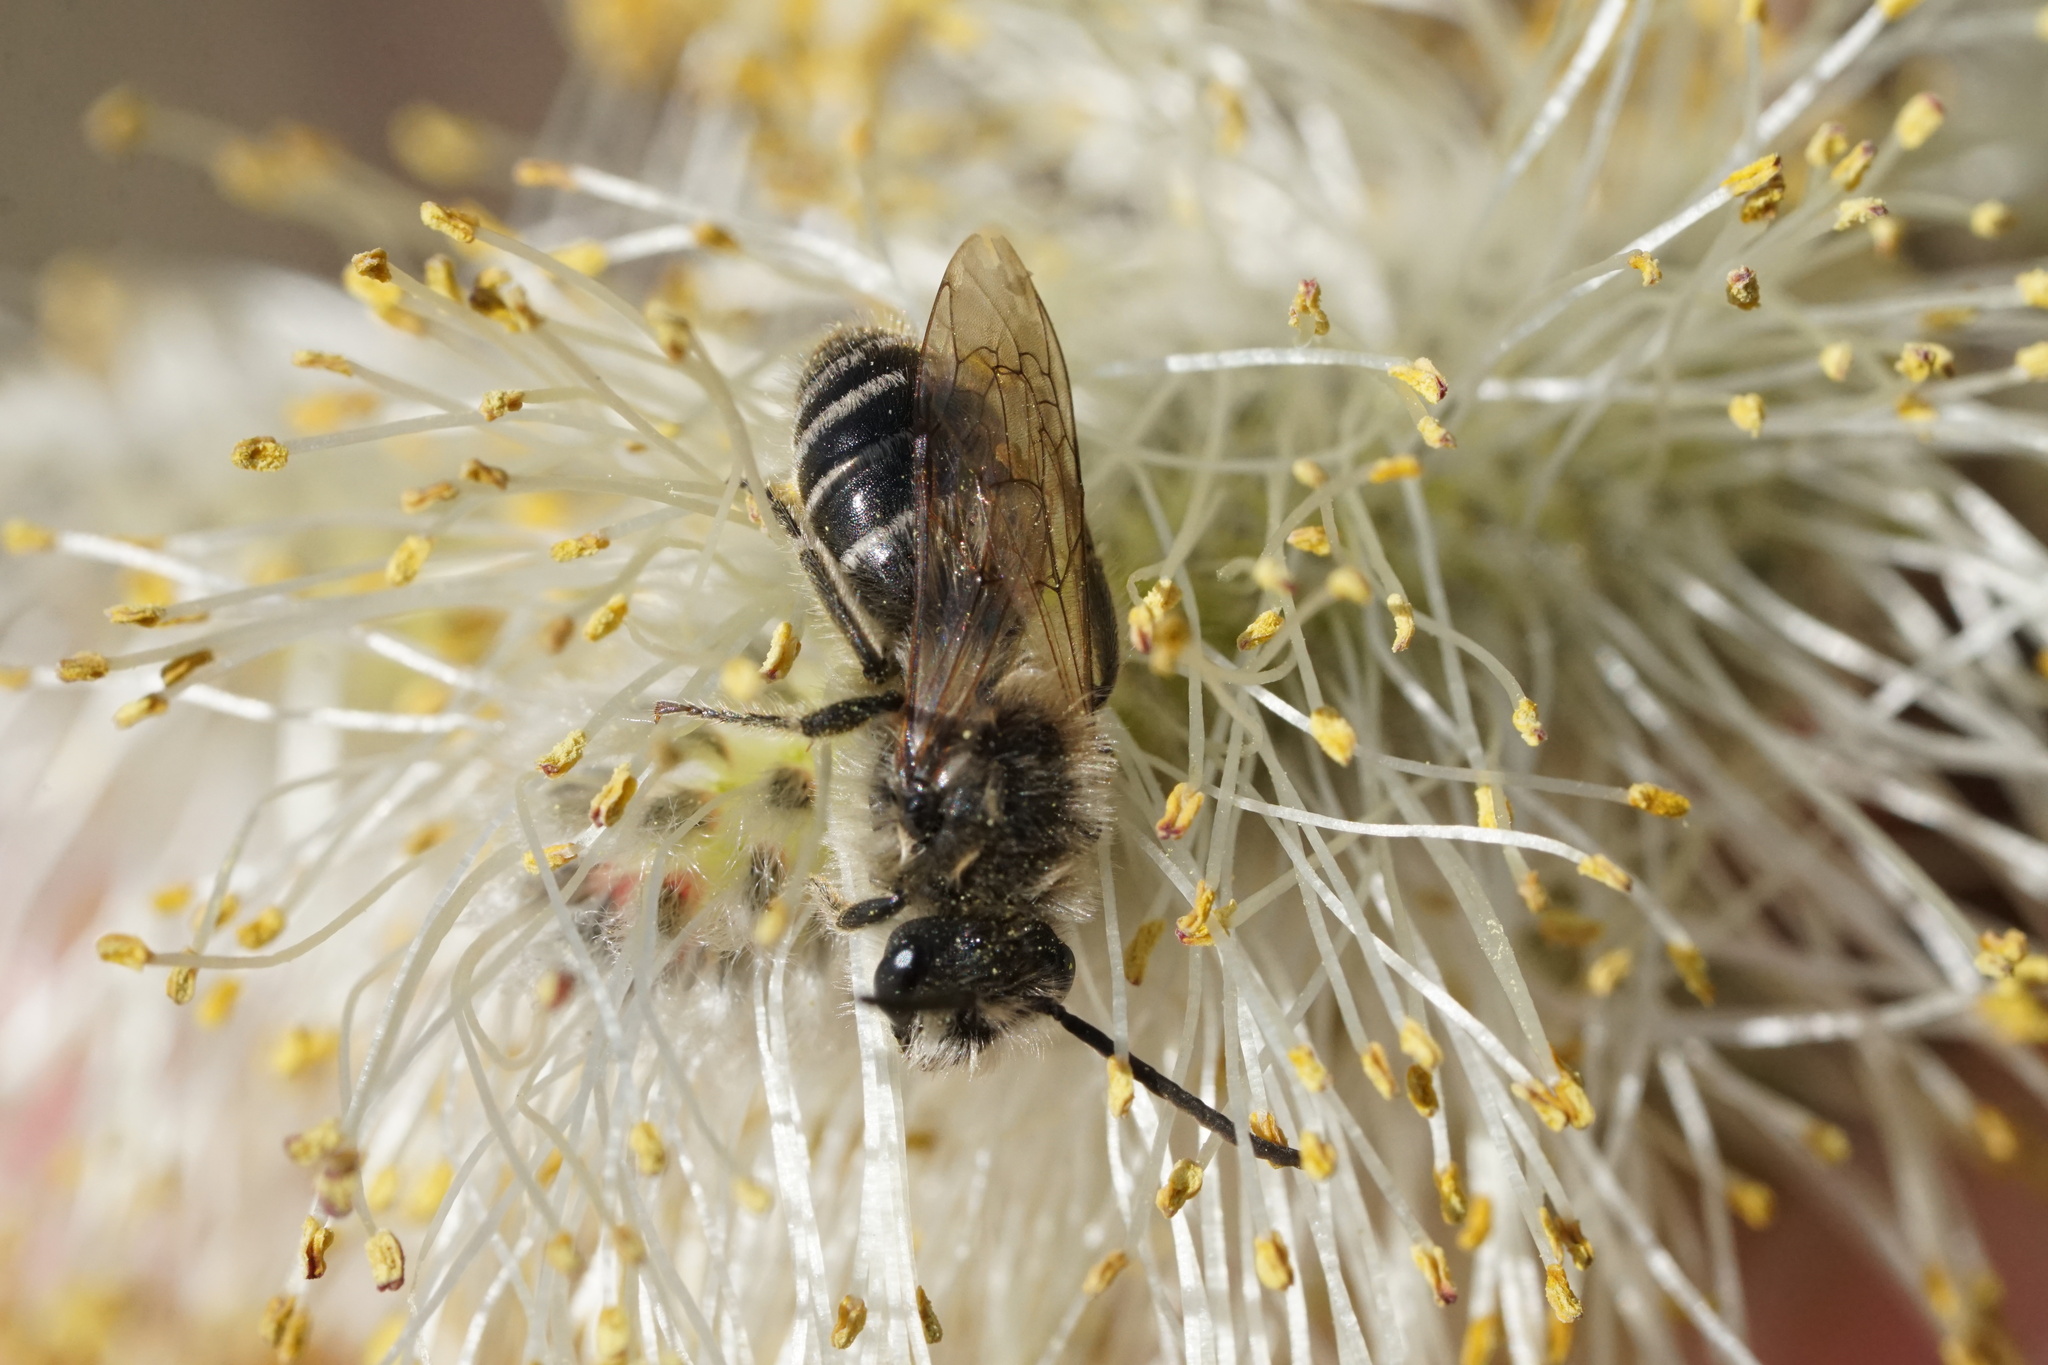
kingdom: Animalia
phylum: Arthropoda
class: Insecta
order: Hymenoptera
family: Colletidae
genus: Colletes
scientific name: Colletes inaequalis
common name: Unequal cellophane bee
